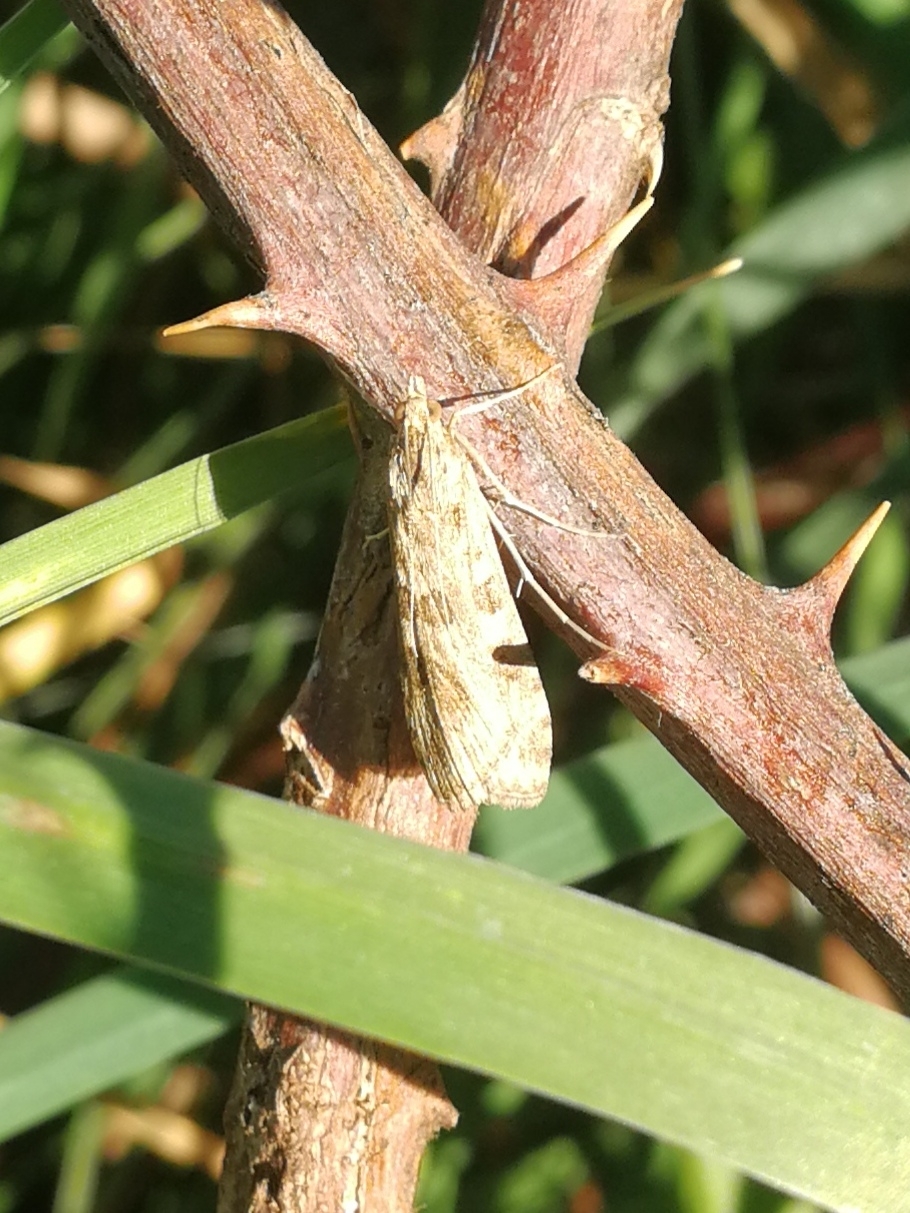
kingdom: Animalia
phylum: Arthropoda
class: Insecta
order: Lepidoptera
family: Crambidae
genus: Nomophila
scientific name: Nomophila noctuella
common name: Rush veneer
